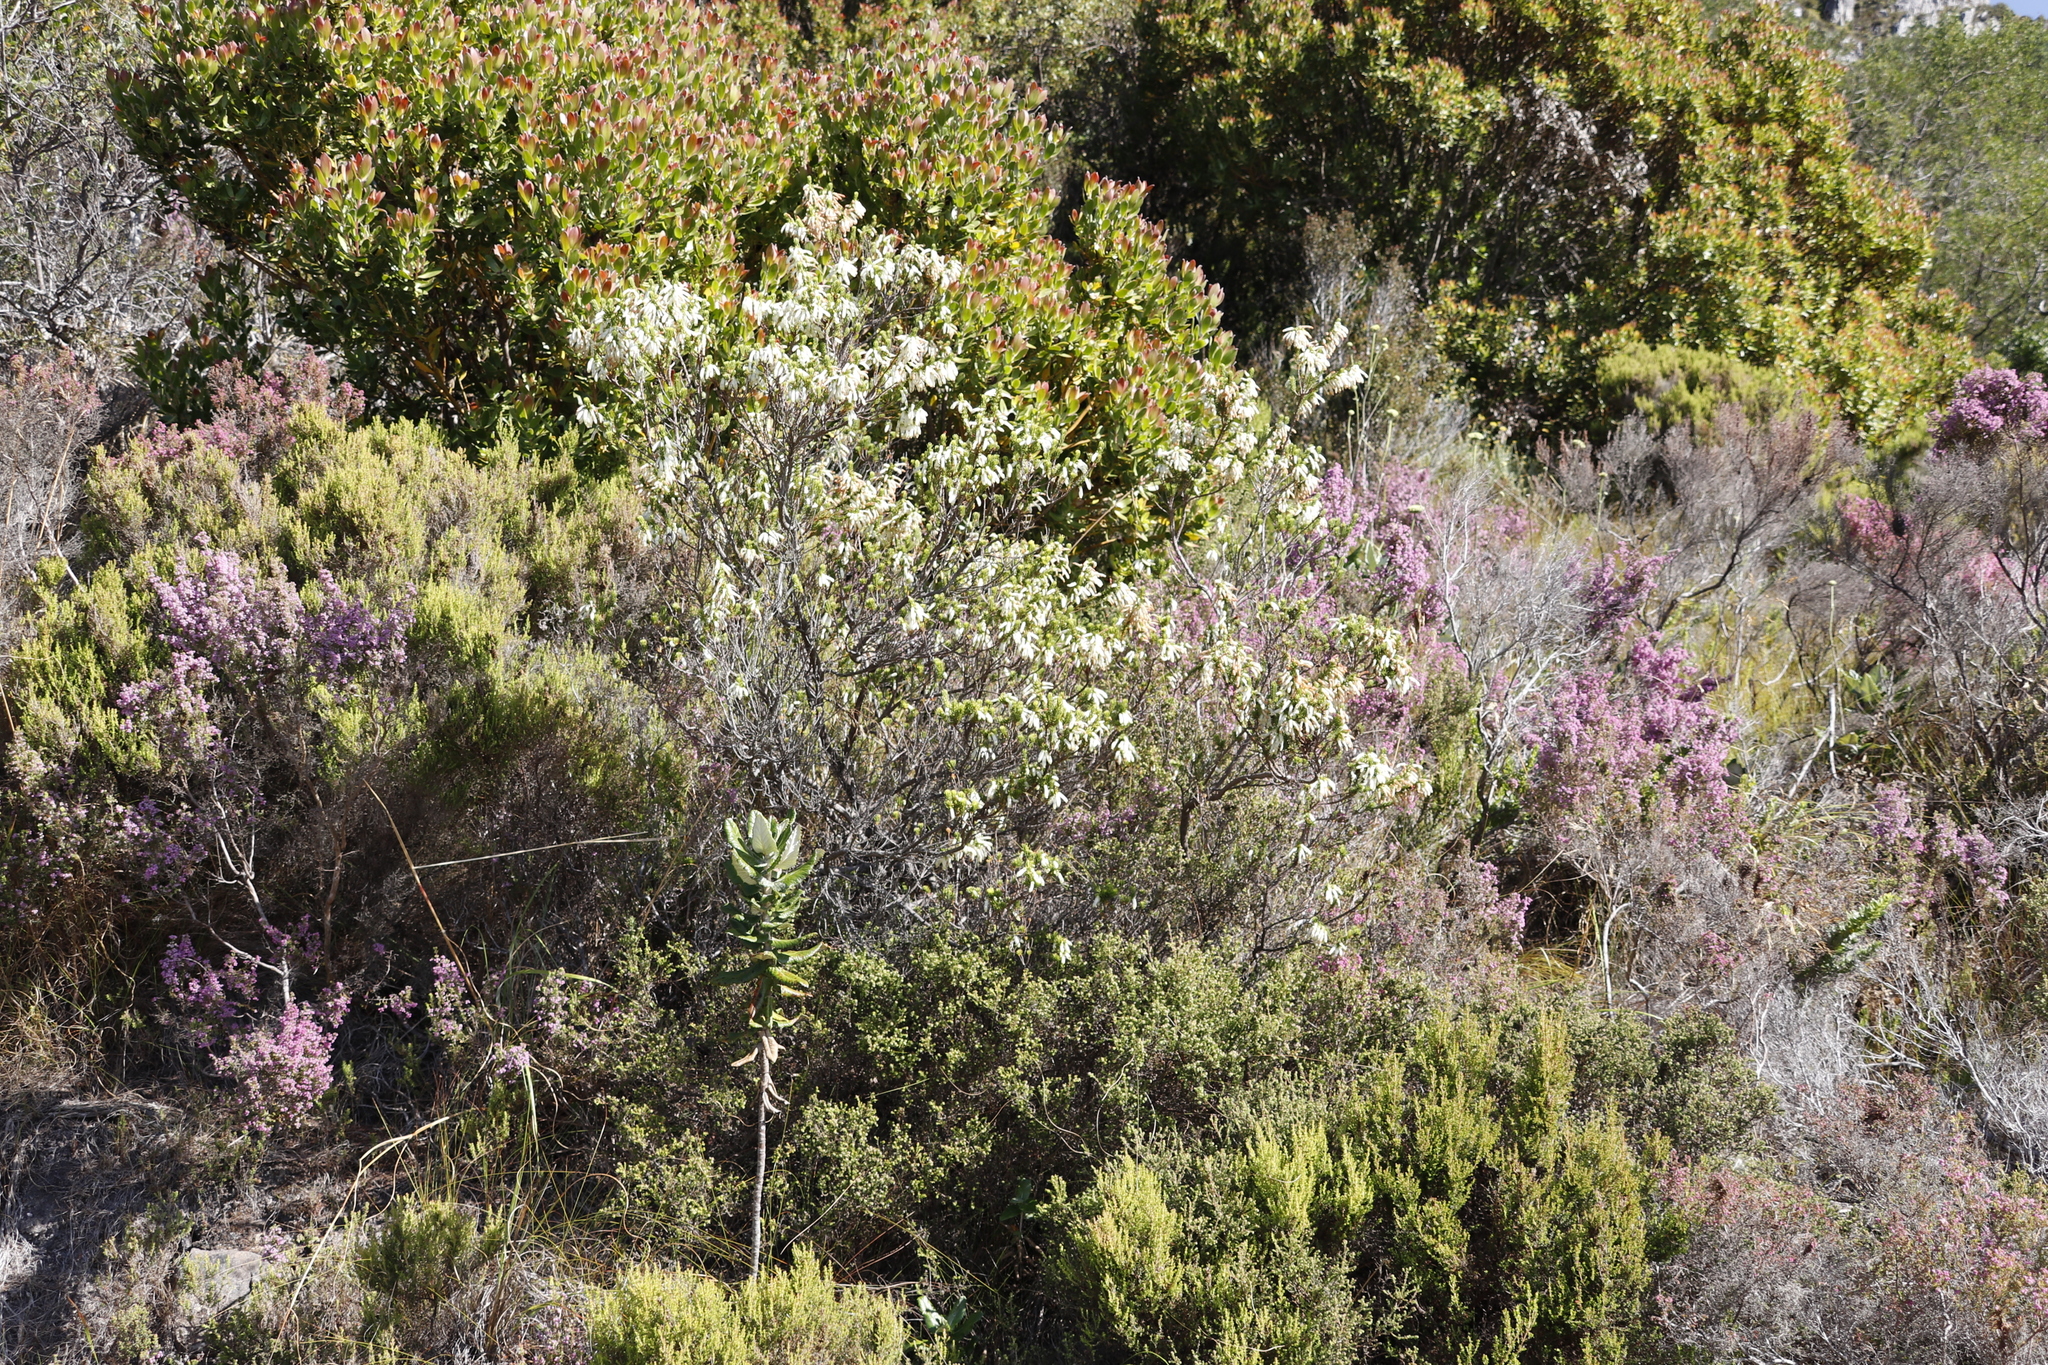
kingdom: Plantae
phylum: Tracheophyta
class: Magnoliopsida
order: Ericales
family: Ericaceae
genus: Erica
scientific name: Erica mammosa
